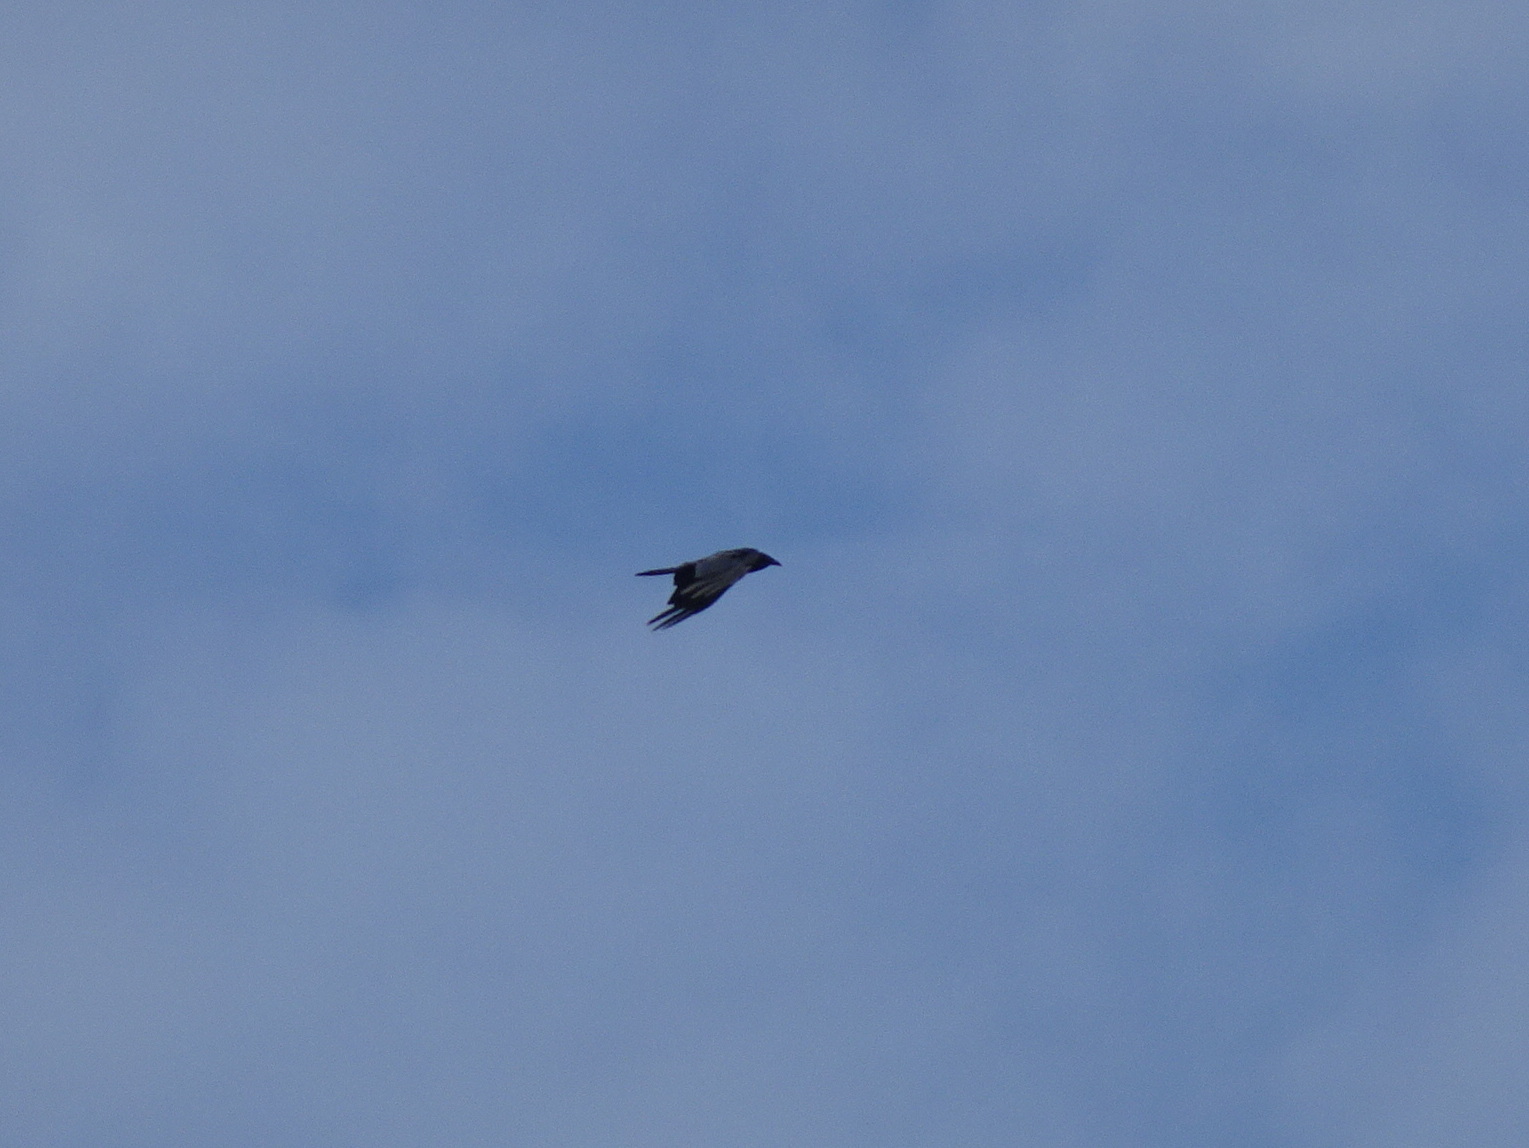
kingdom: Animalia
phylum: Chordata
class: Aves
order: Passeriformes
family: Corvidae
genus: Corvus
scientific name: Corvus
